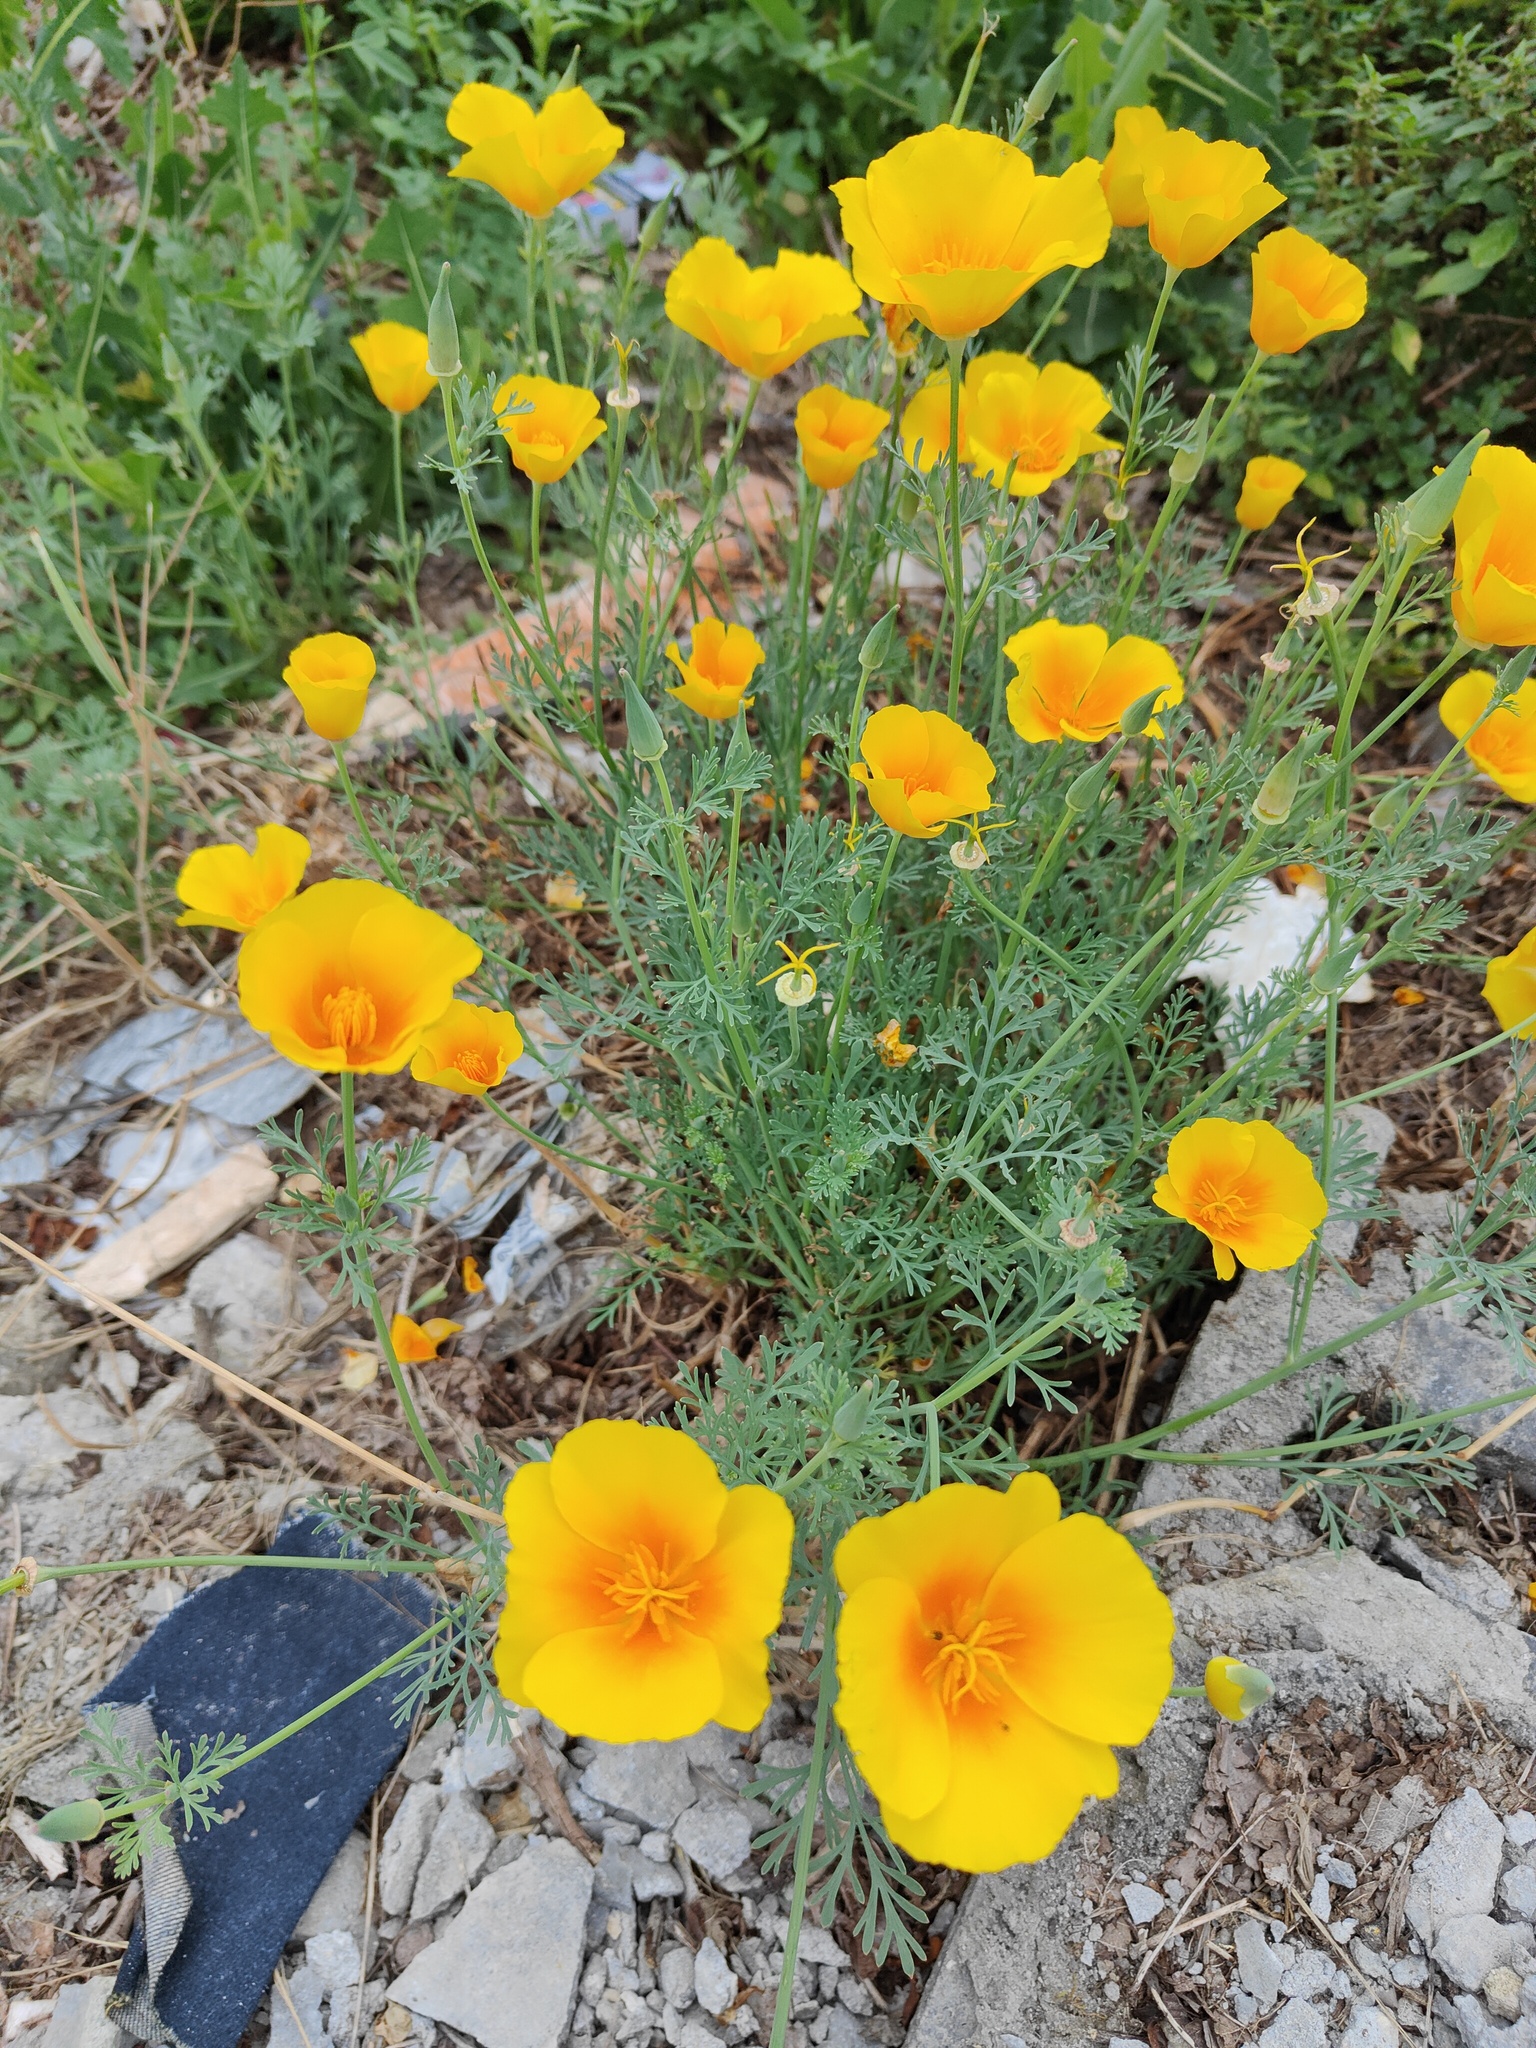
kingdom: Plantae
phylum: Tracheophyta
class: Magnoliopsida
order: Ranunculales
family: Papaveraceae
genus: Eschscholzia
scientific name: Eschscholzia californica
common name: California poppy
